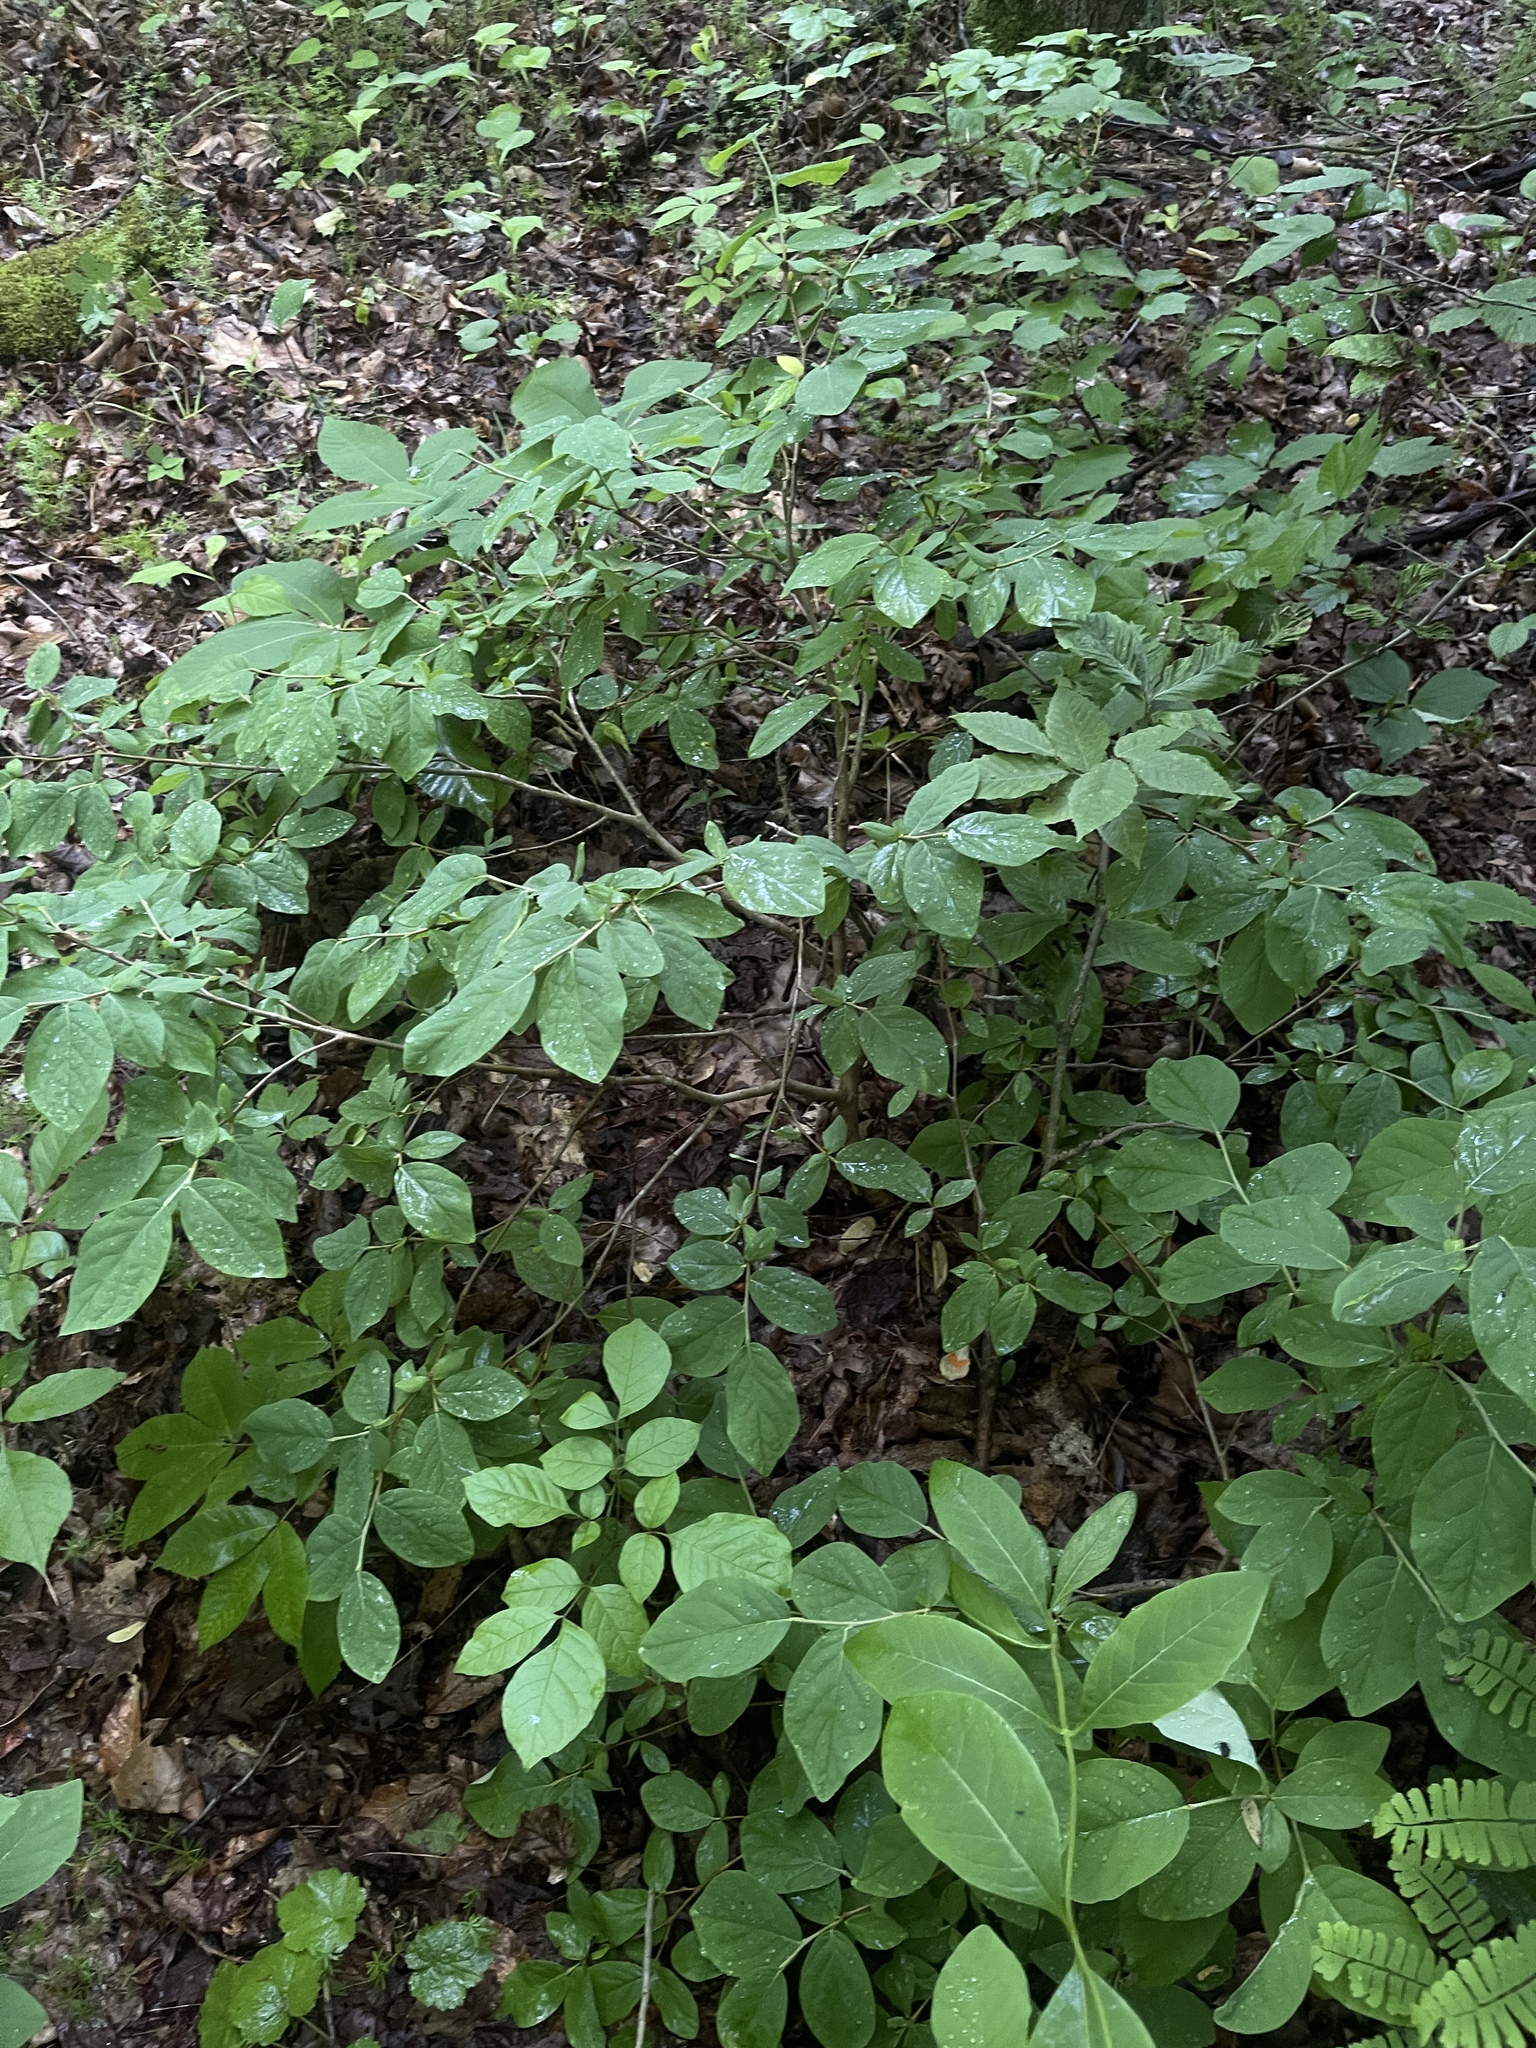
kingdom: Plantae
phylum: Tracheophyta
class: Magnoliopsida
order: Malvales
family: Thymelaeaceae
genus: Dirca
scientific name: Dirca palustris
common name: Leatherwood
